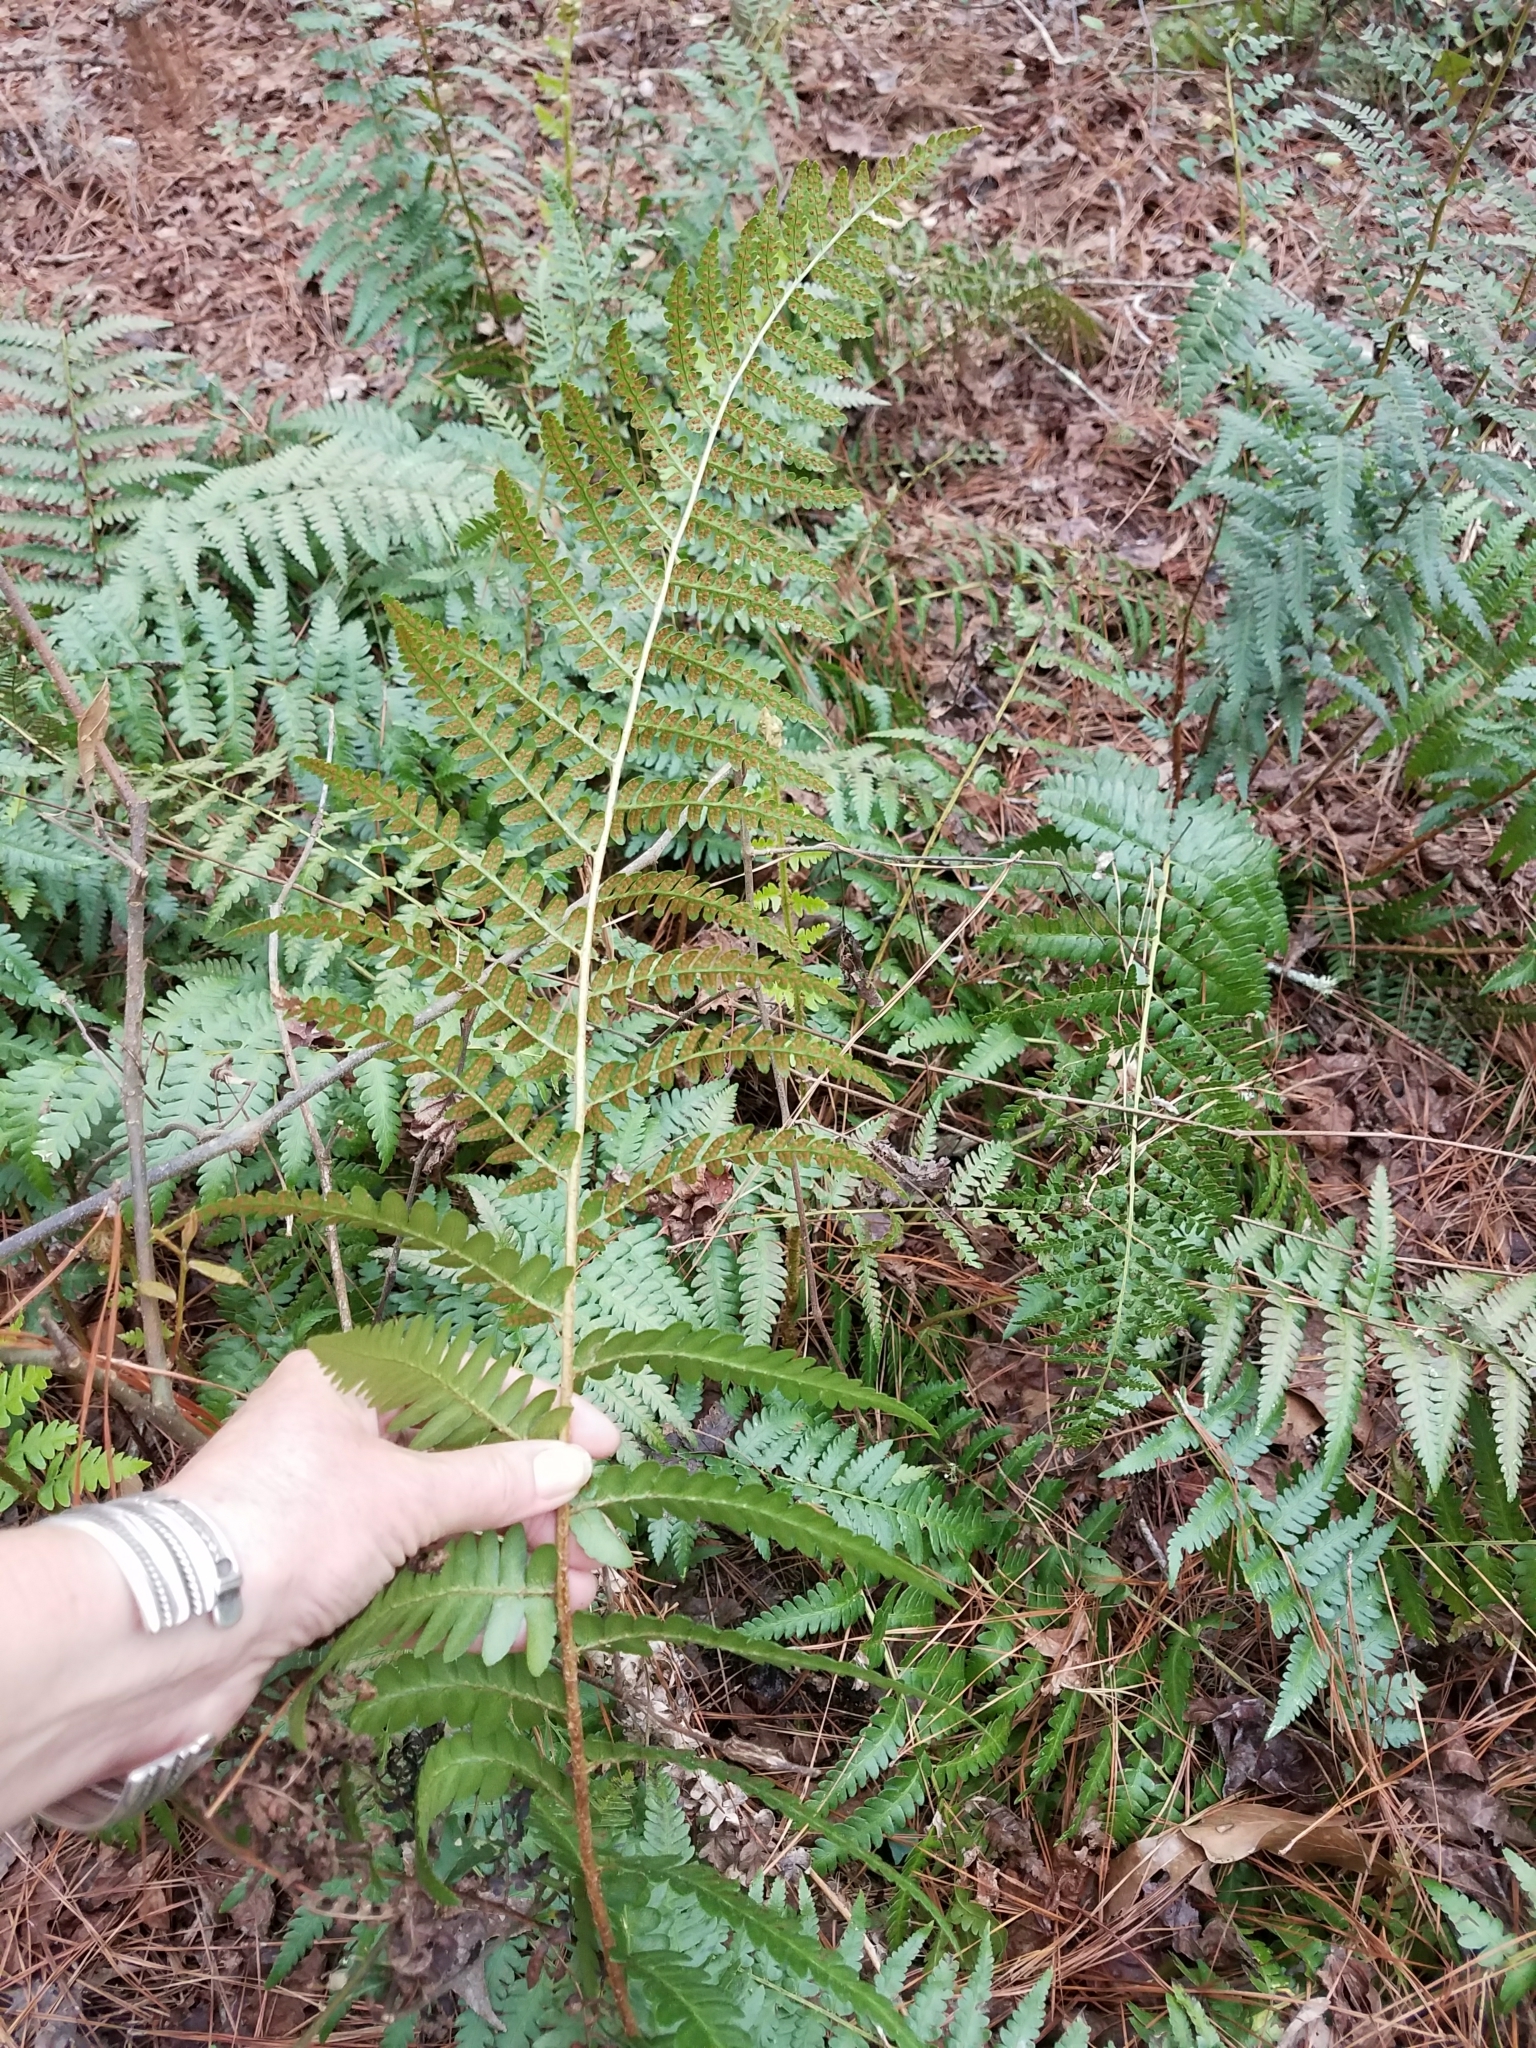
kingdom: Plantae
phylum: Tracheophyta
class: Polypodiopsida
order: Polypodiales
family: Dryopteridaceae
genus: Dryopteris
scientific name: Dryopteris ludoviciana
